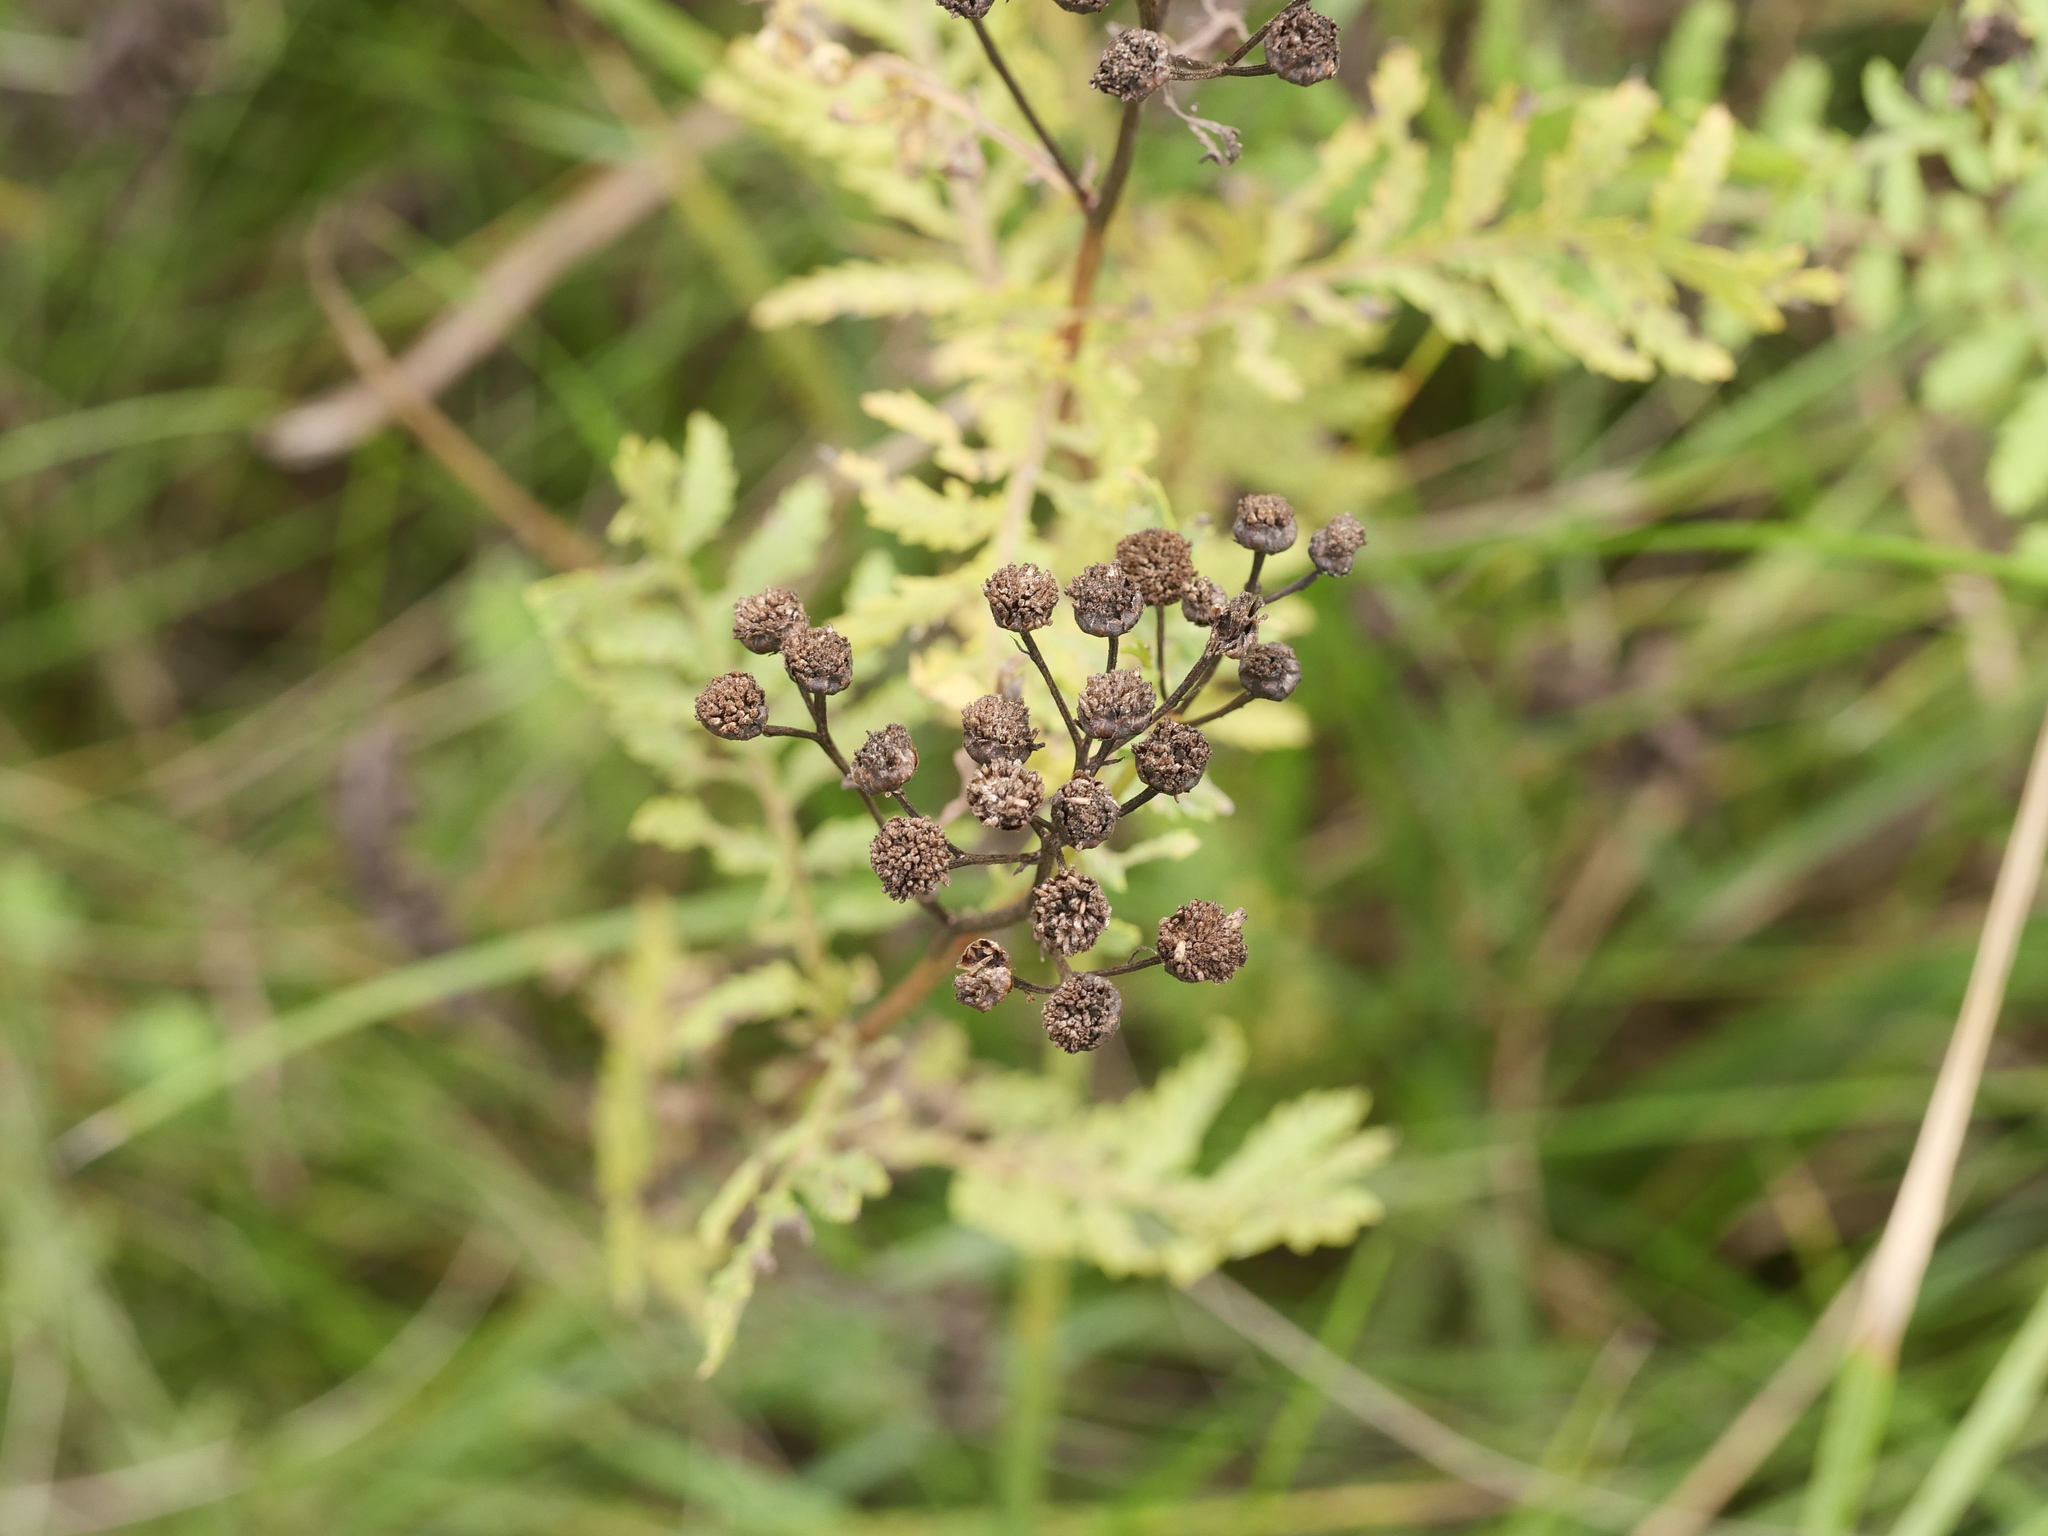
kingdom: Plantae
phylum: Tracheophyta
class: Magnoliopsida
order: Asterales
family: Asteraceae
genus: Tanacetum
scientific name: Tanacetum vulgare
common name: Common tansy
